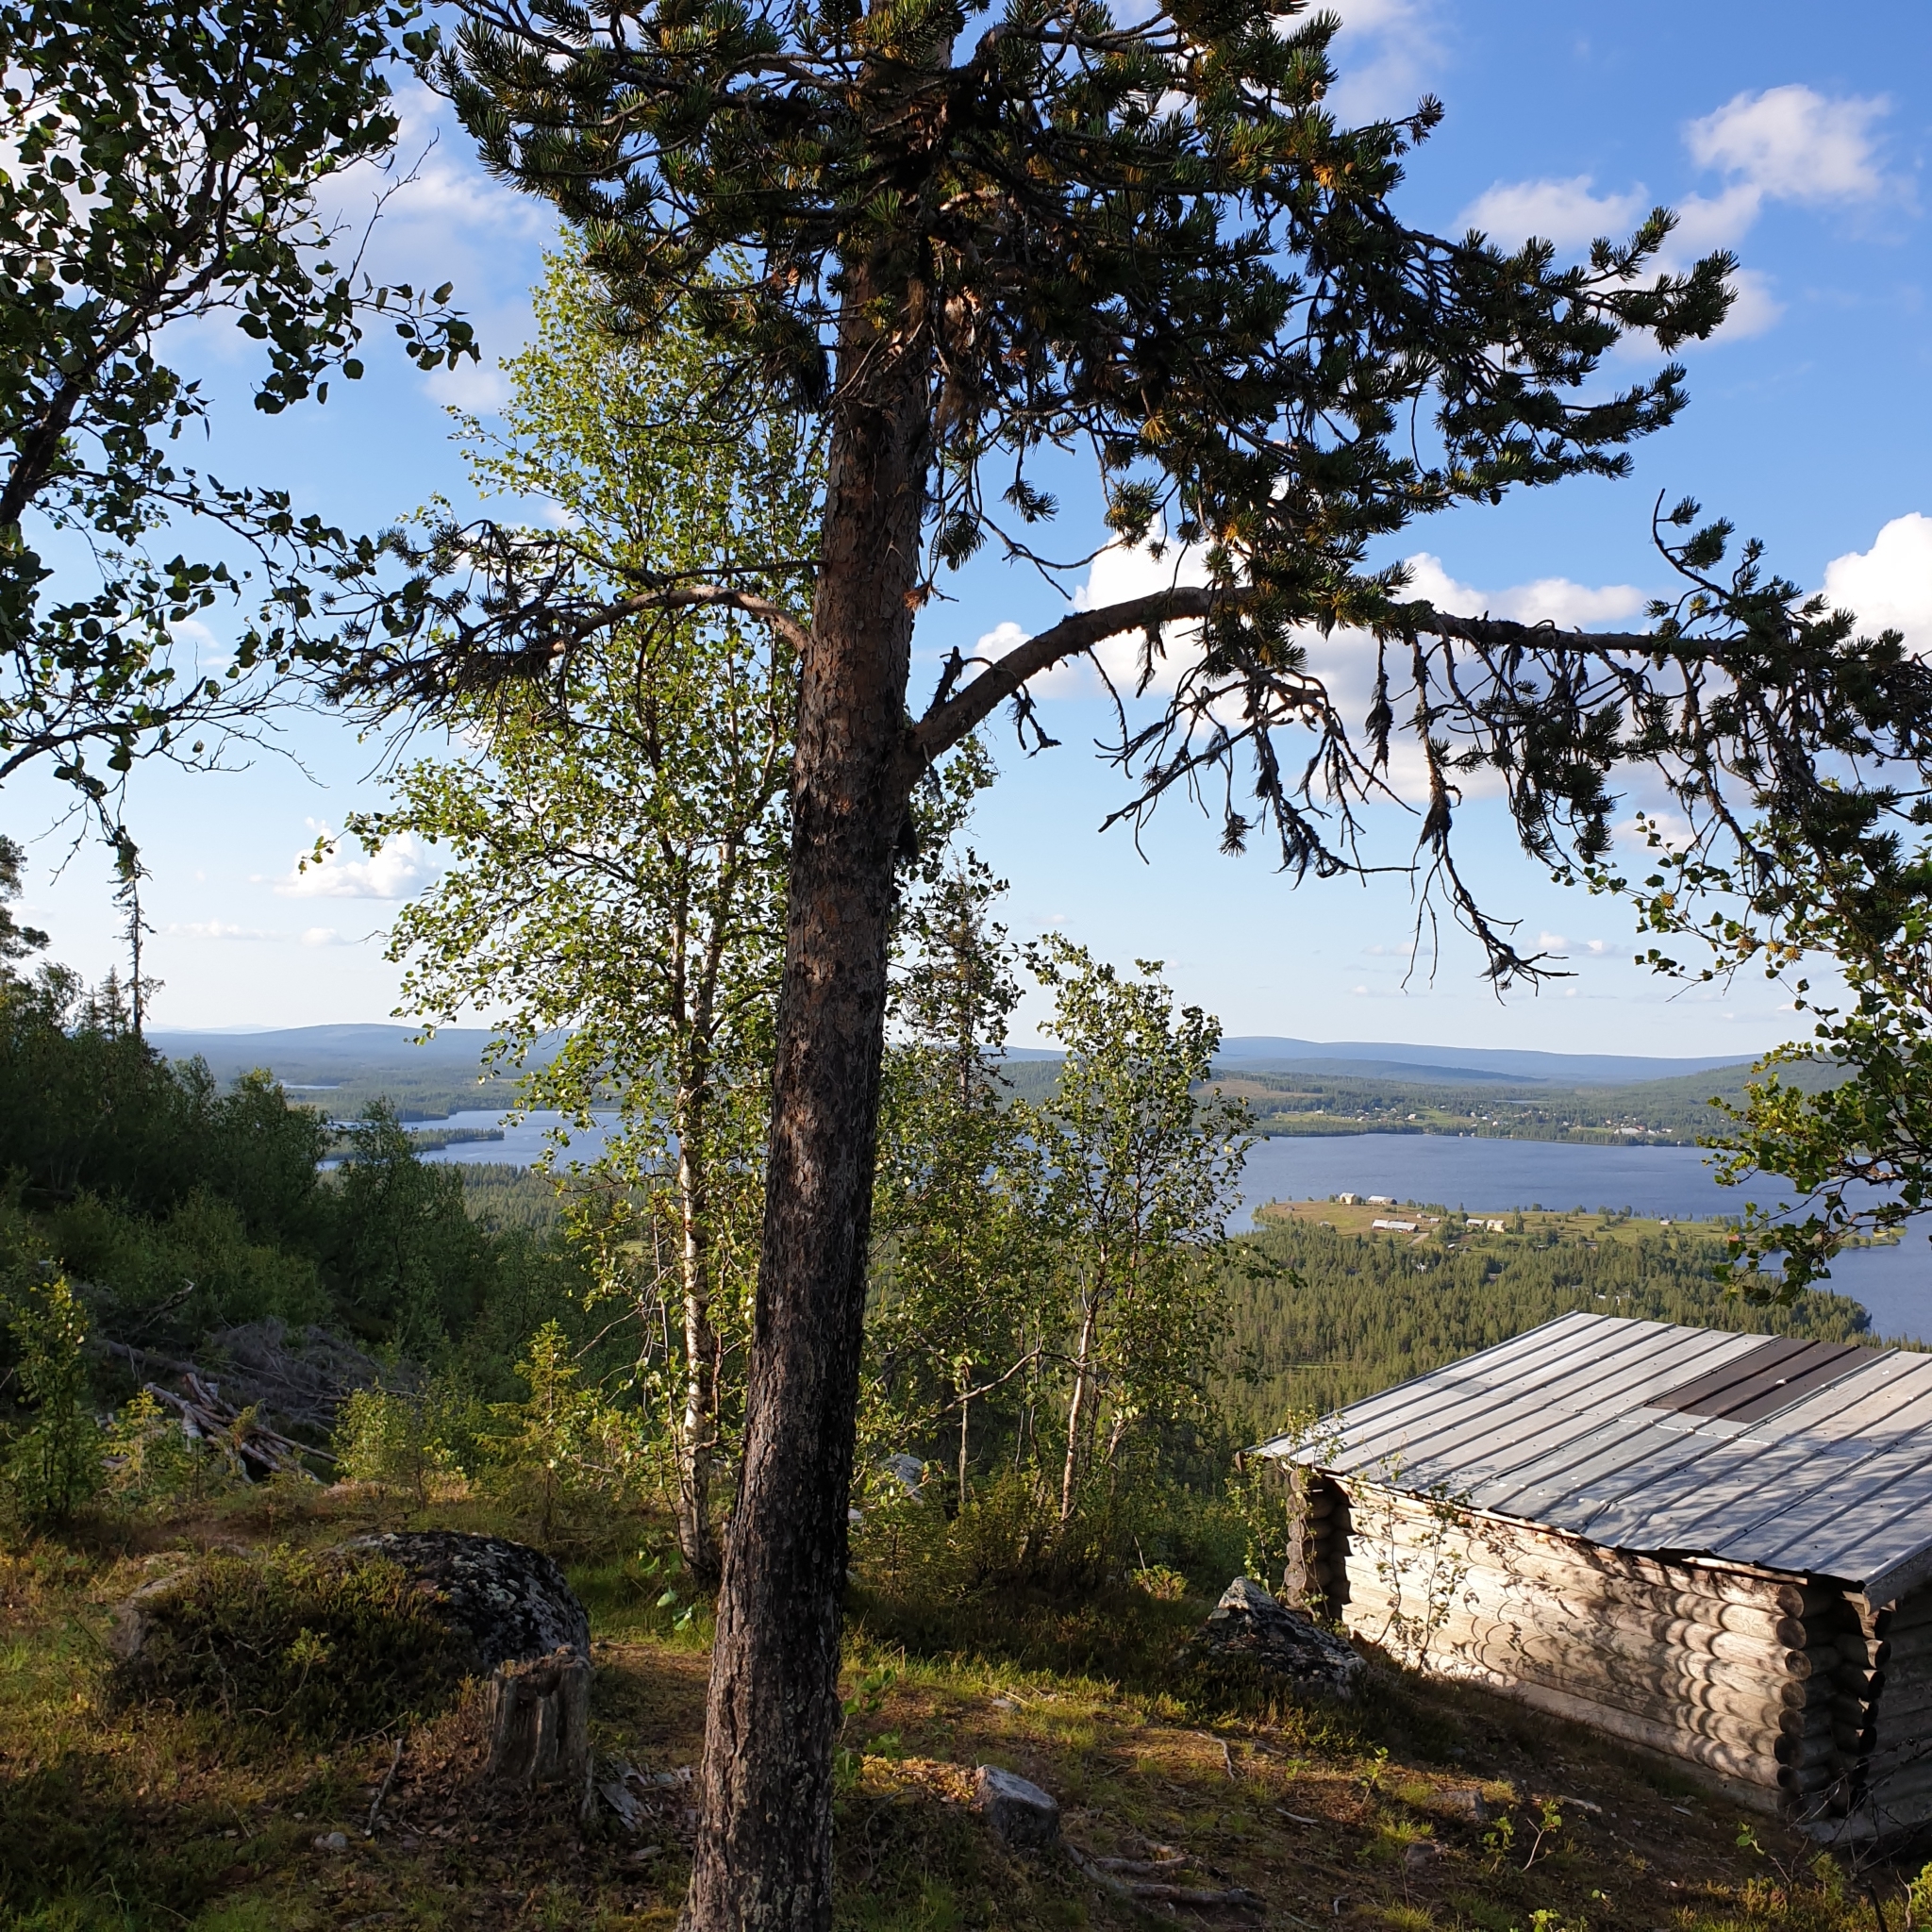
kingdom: Plantae
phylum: Tracheophyta
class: Pinopsida
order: Pinales
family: Pinaceae
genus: Pinus
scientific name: Pinus sylvestris
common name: Scots pine
